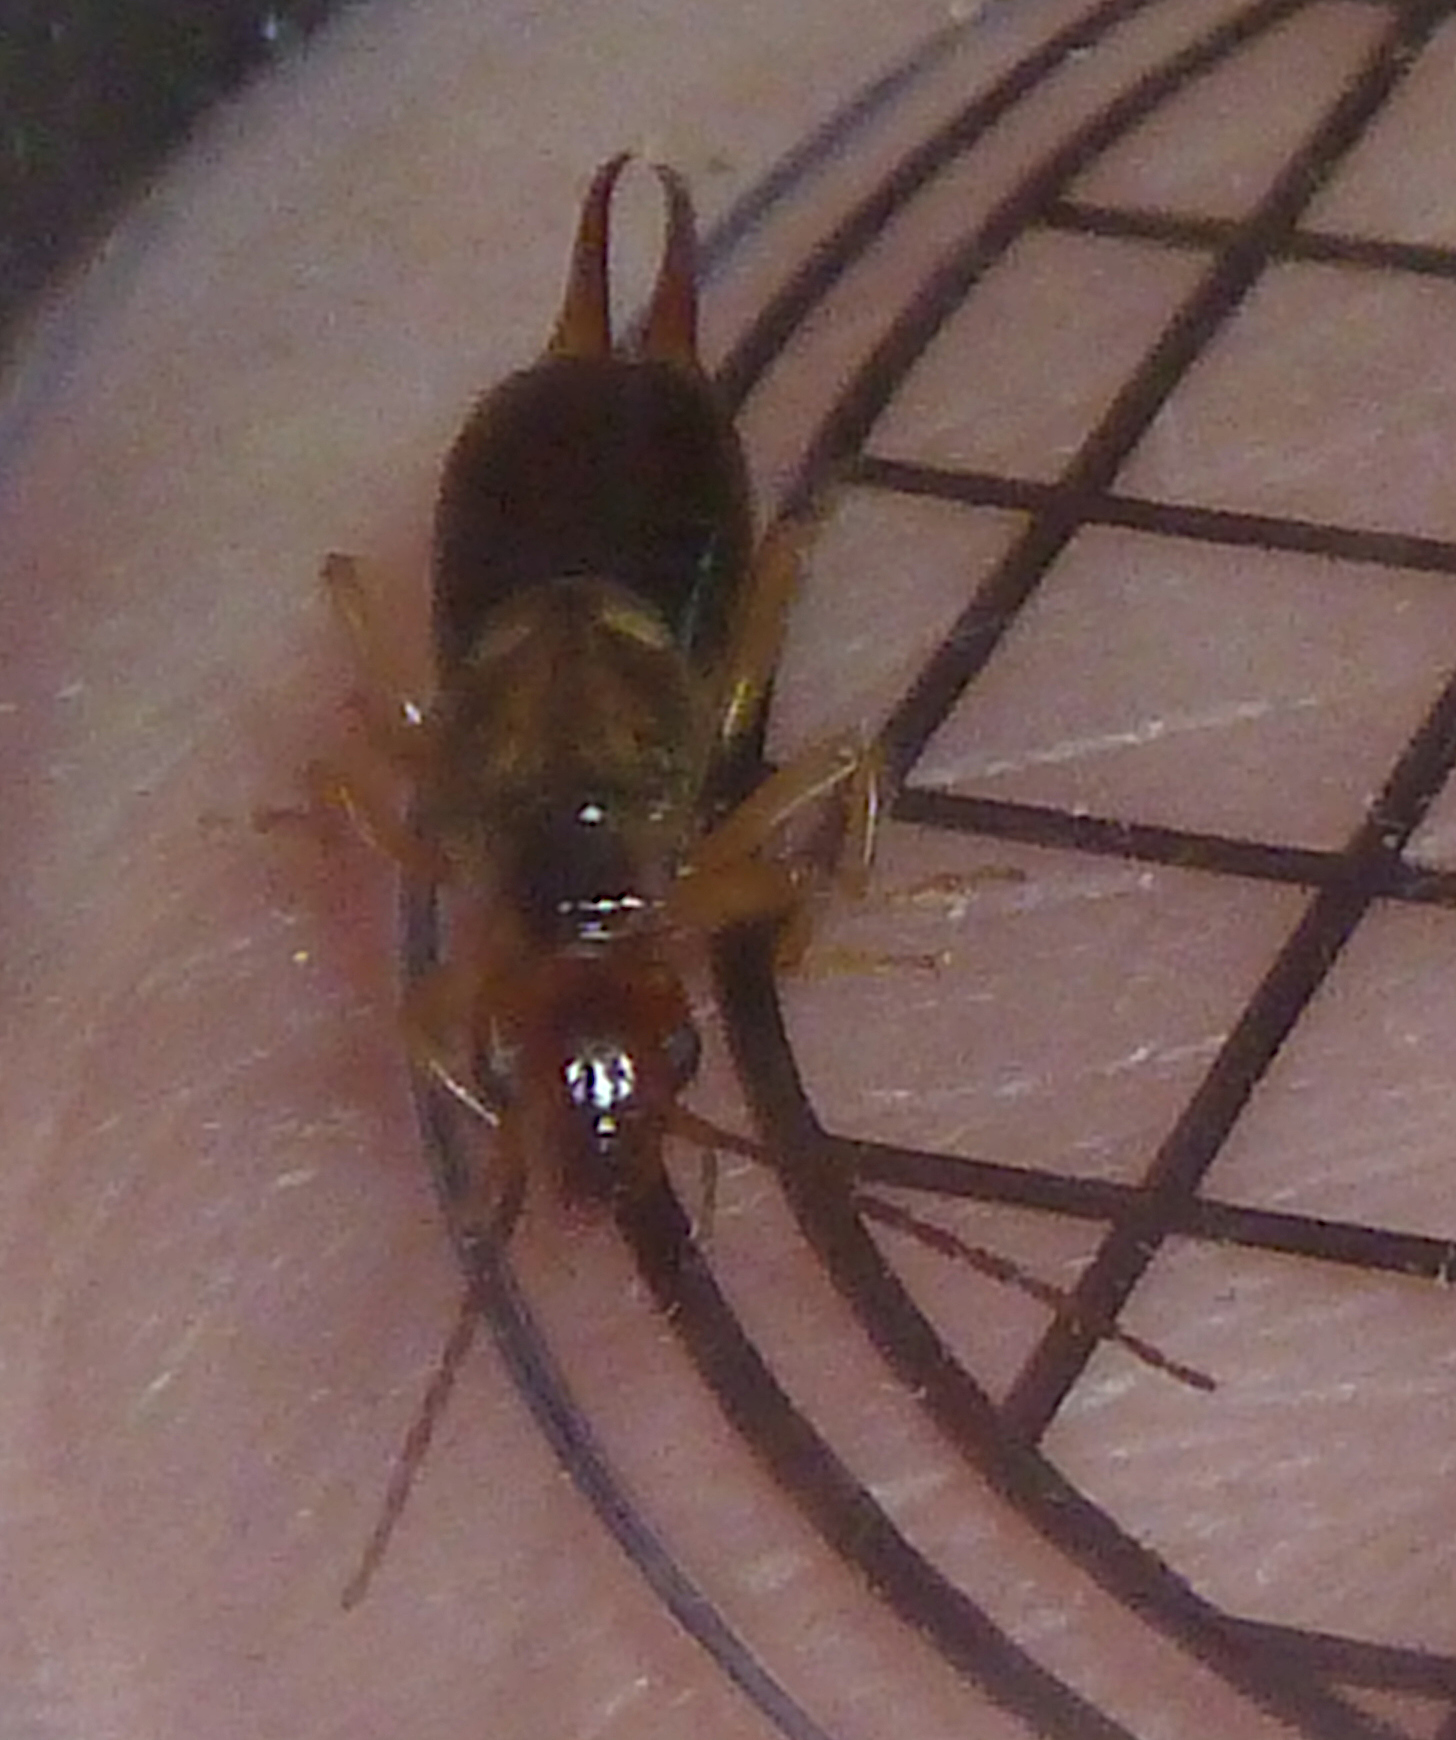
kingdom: Animalia
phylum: Arthropoda
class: Insecta
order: Dermaptera
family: Forficulidae
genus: Forficula
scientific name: Forficula
